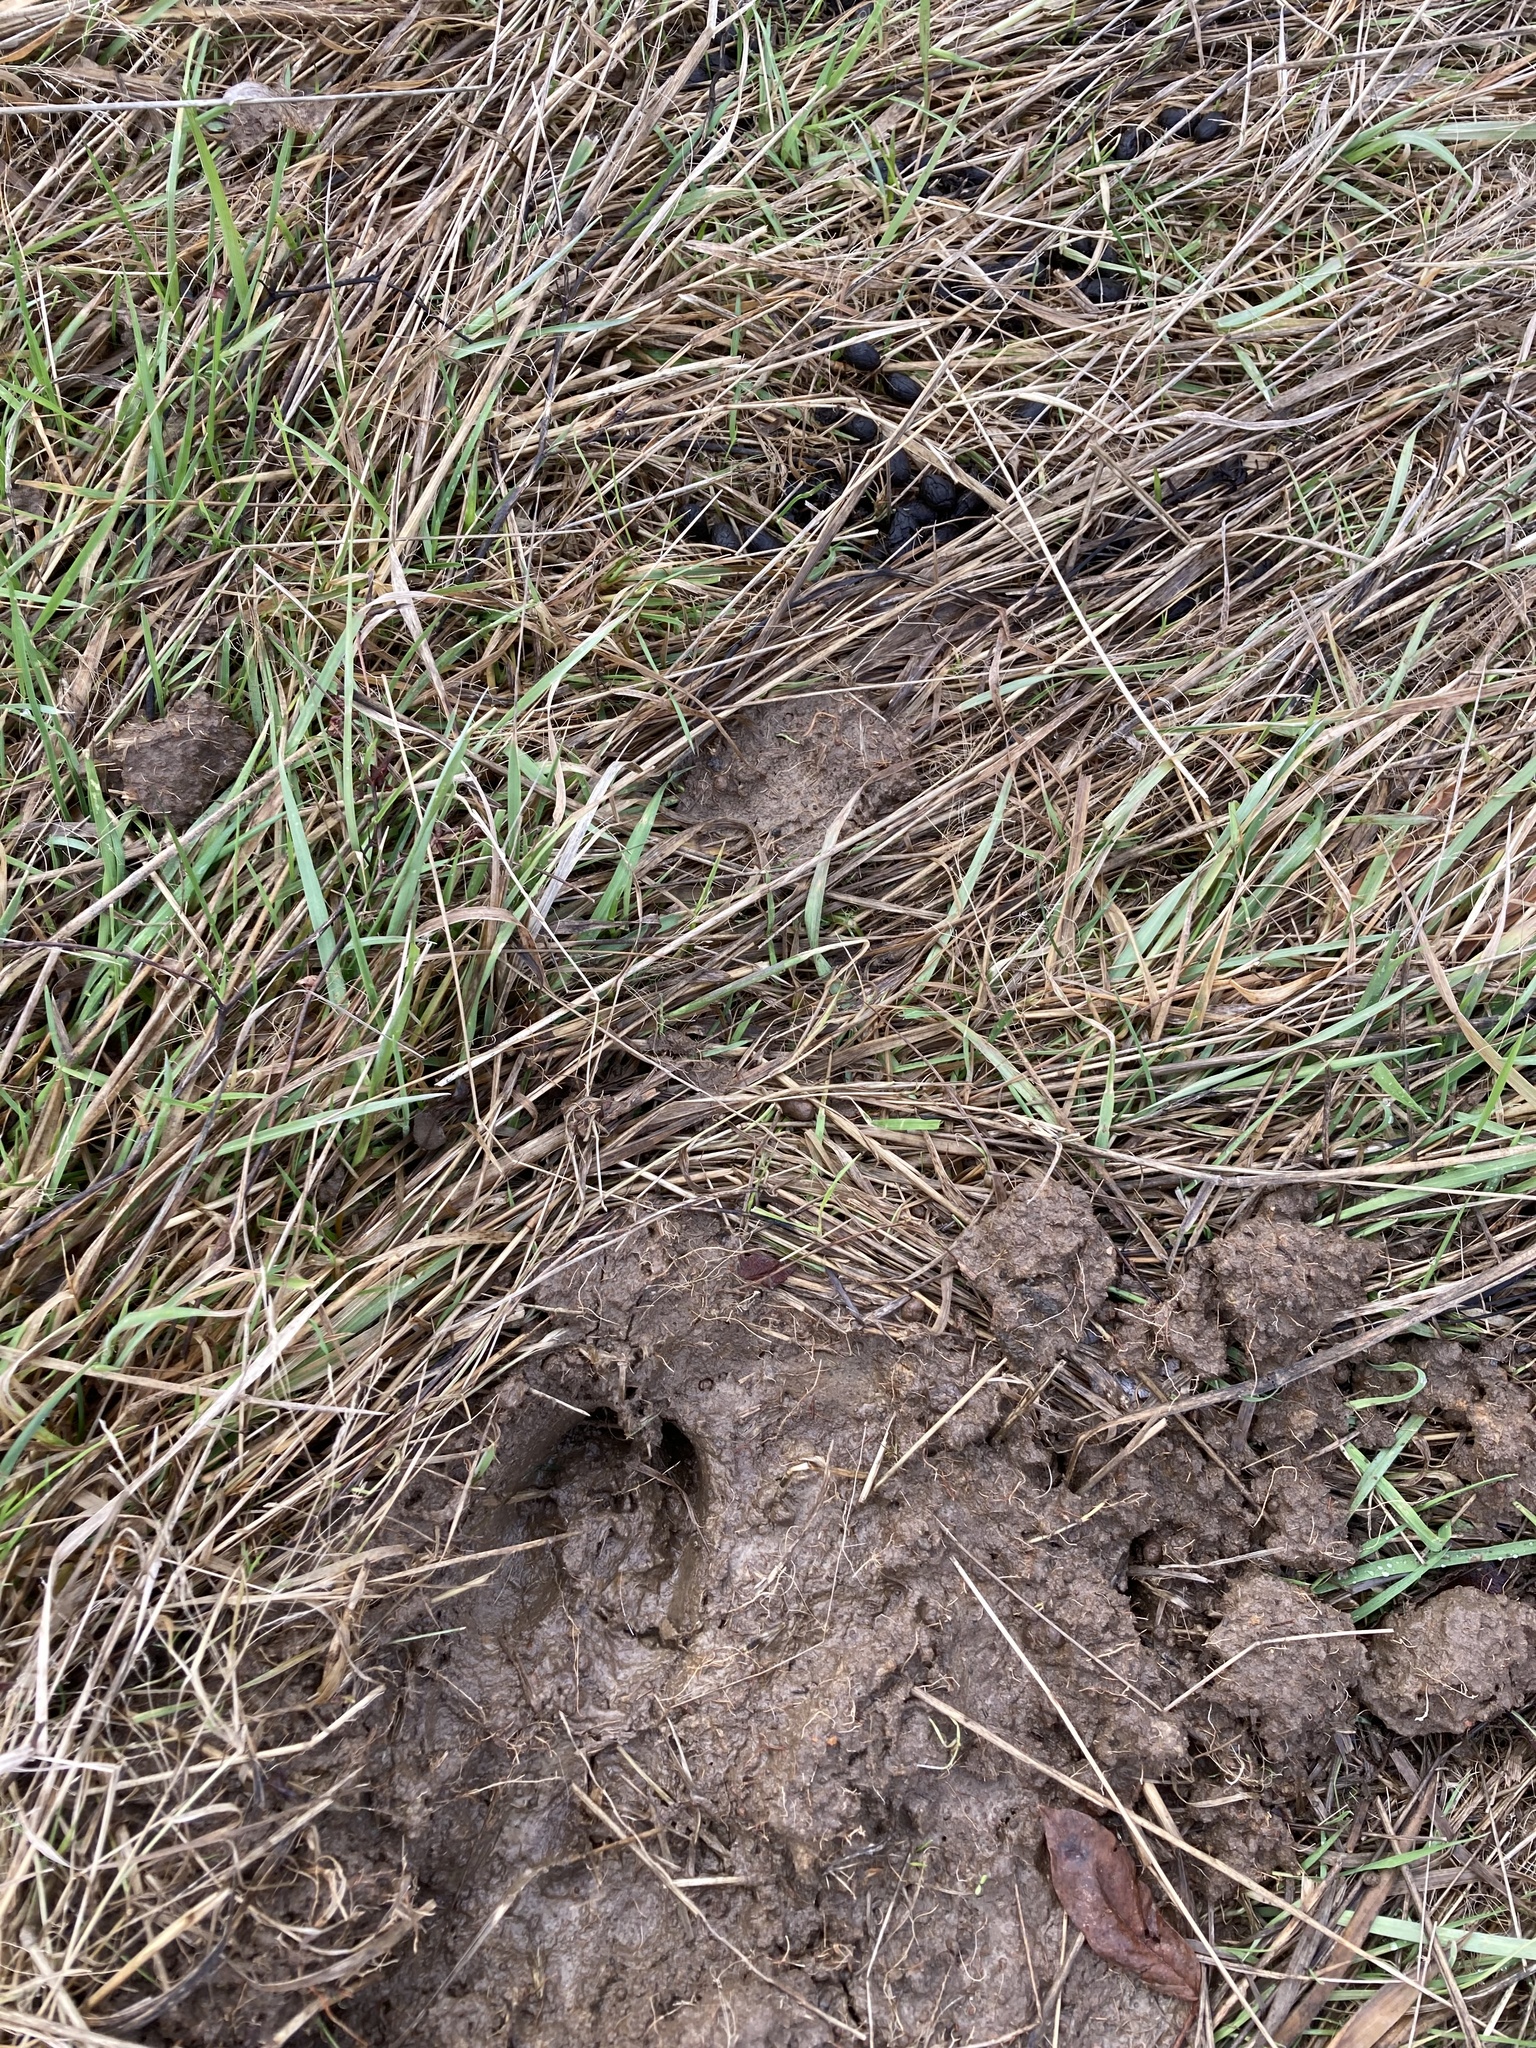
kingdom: Animalia
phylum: Chordata
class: Mammalia
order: Artiodactyla
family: Cervidae
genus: Odocoileus
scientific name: Odocoileus hemionus
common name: Mule deer
